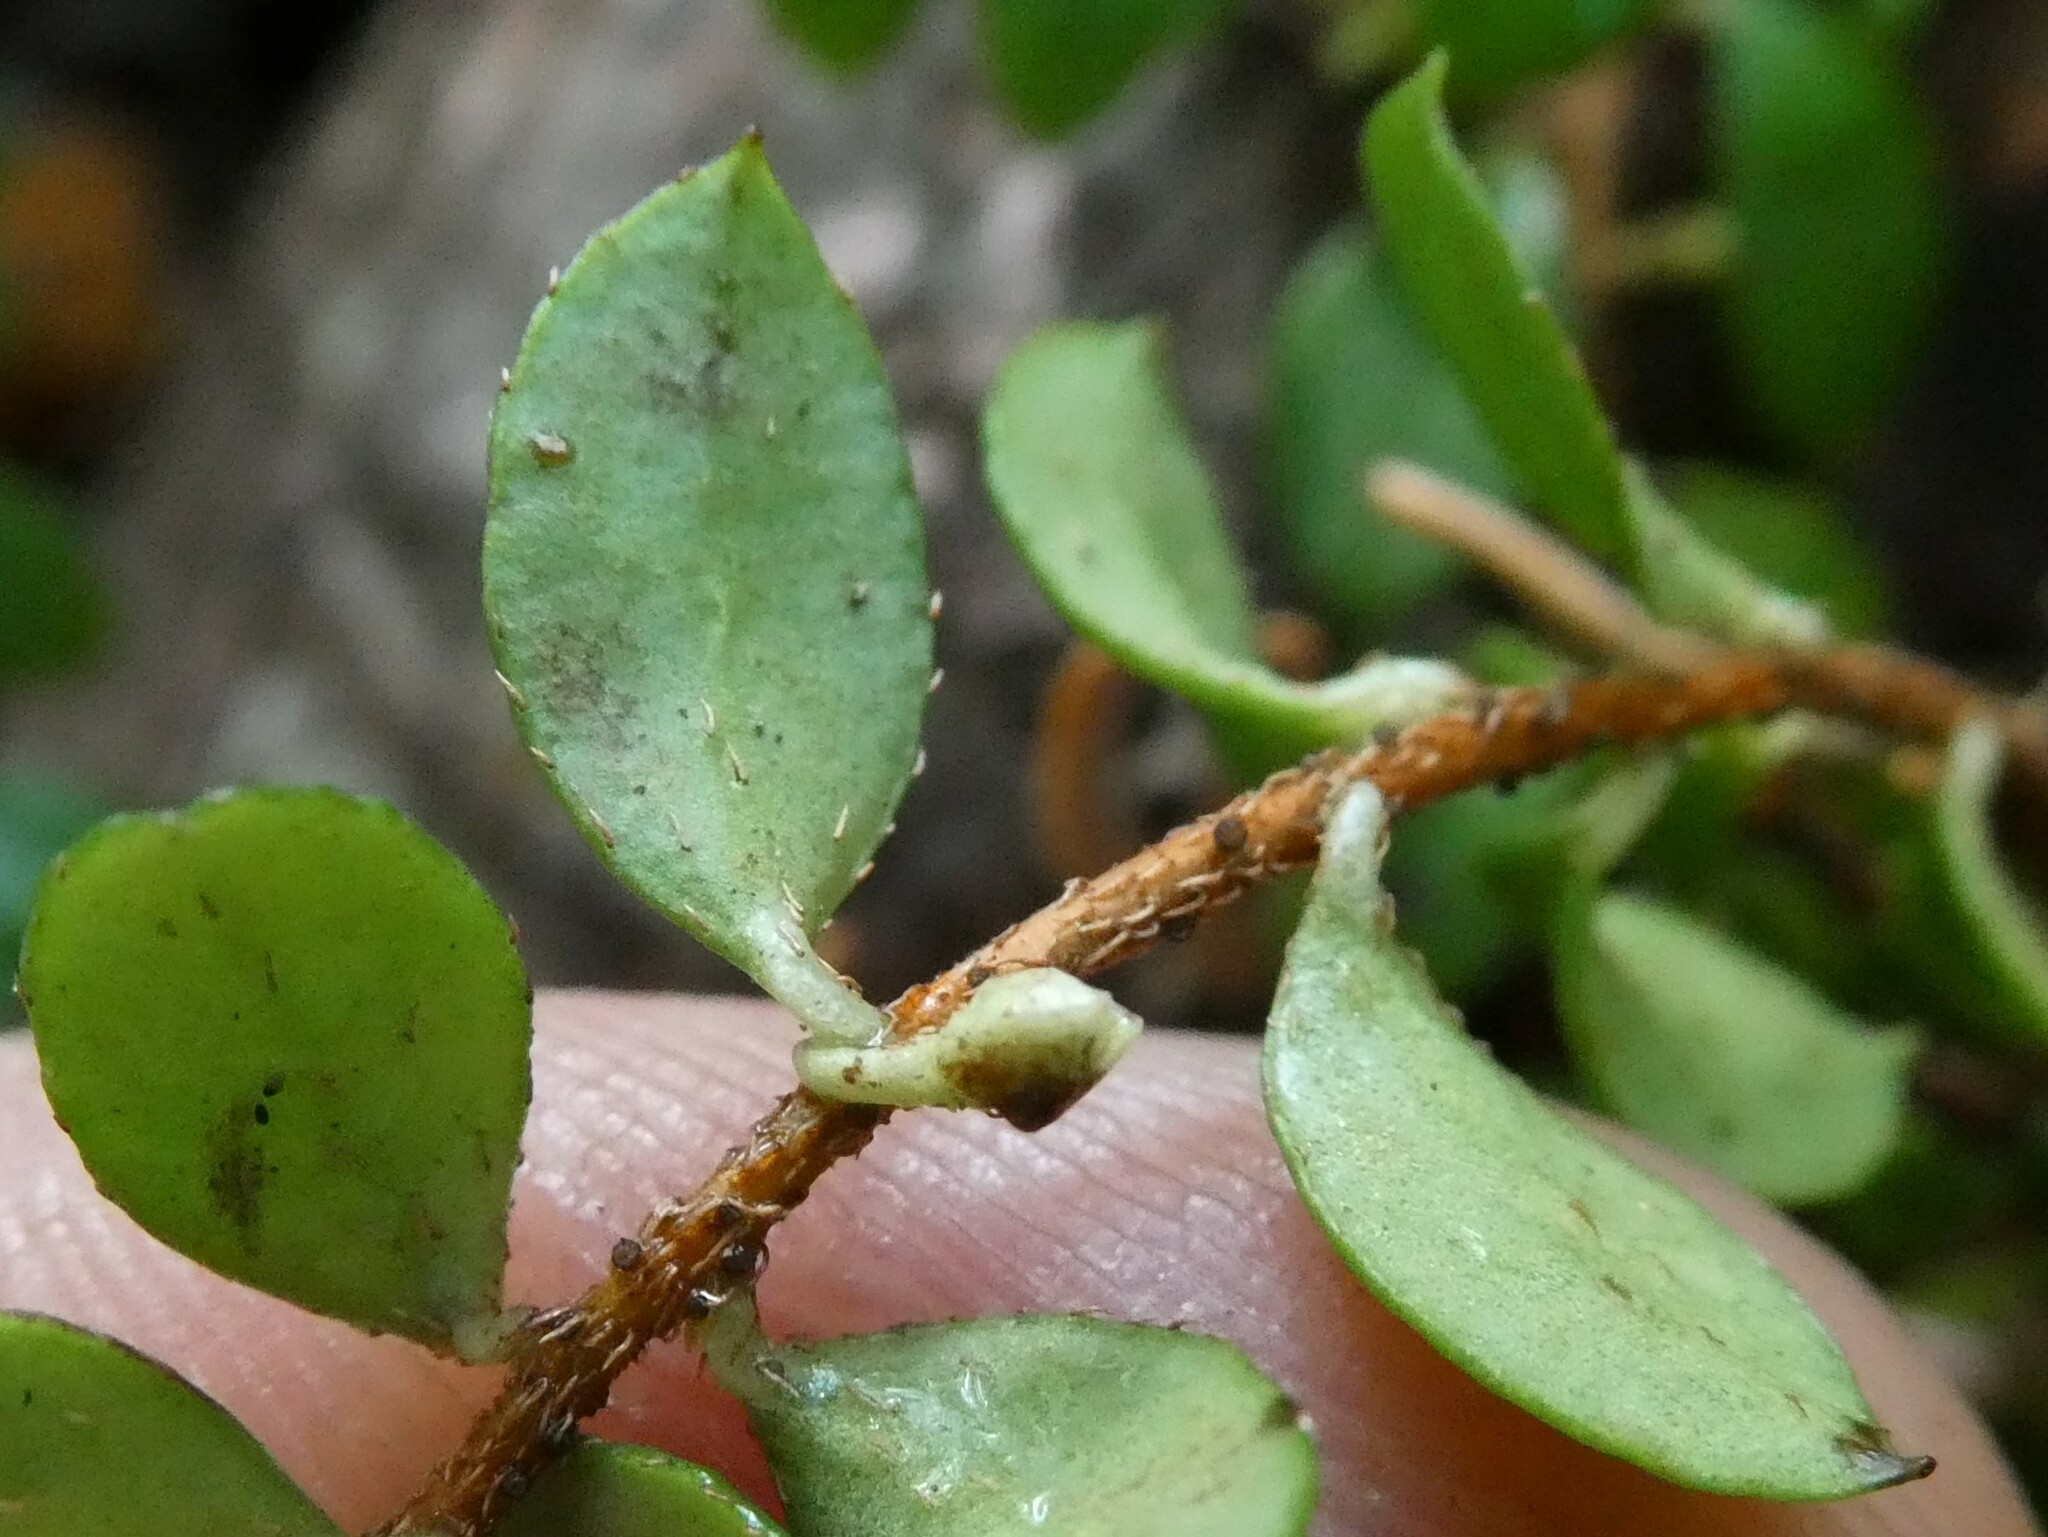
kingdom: Plantae
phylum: Tracheophyta
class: Magnoliopsida
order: Ericales
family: Ericaceae
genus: Gaultheria
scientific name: Gaultheria hispidula
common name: Cancer wintergreen
